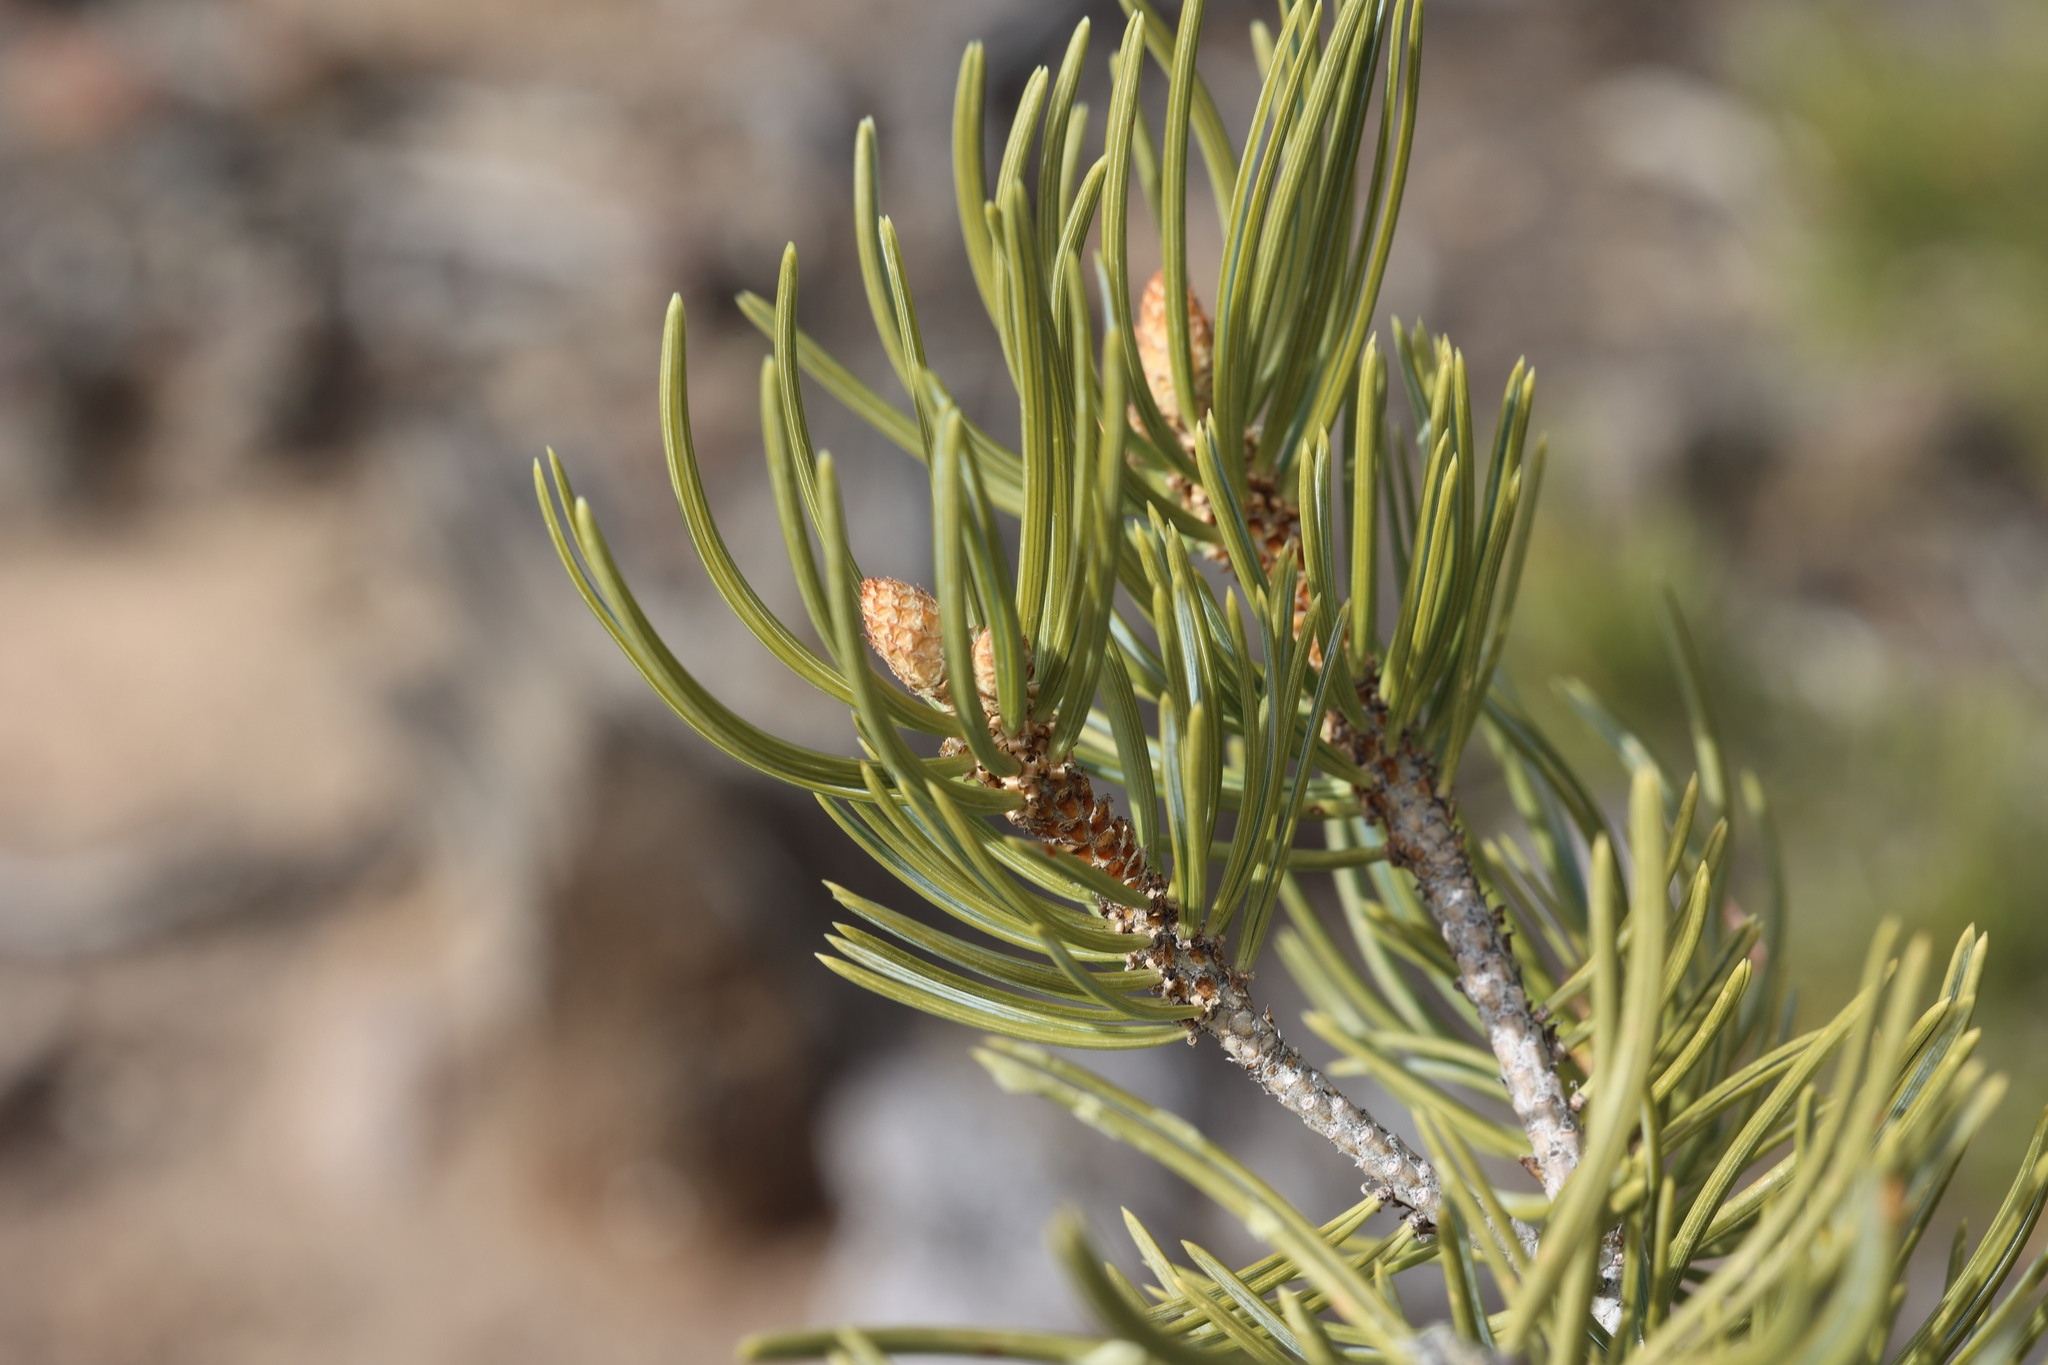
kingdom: Plantae
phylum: Tracheophyta
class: Pinopsida
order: Pinales
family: Pinaceae
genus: Pinus
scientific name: Pinus edulis
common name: Colorado pinyon
